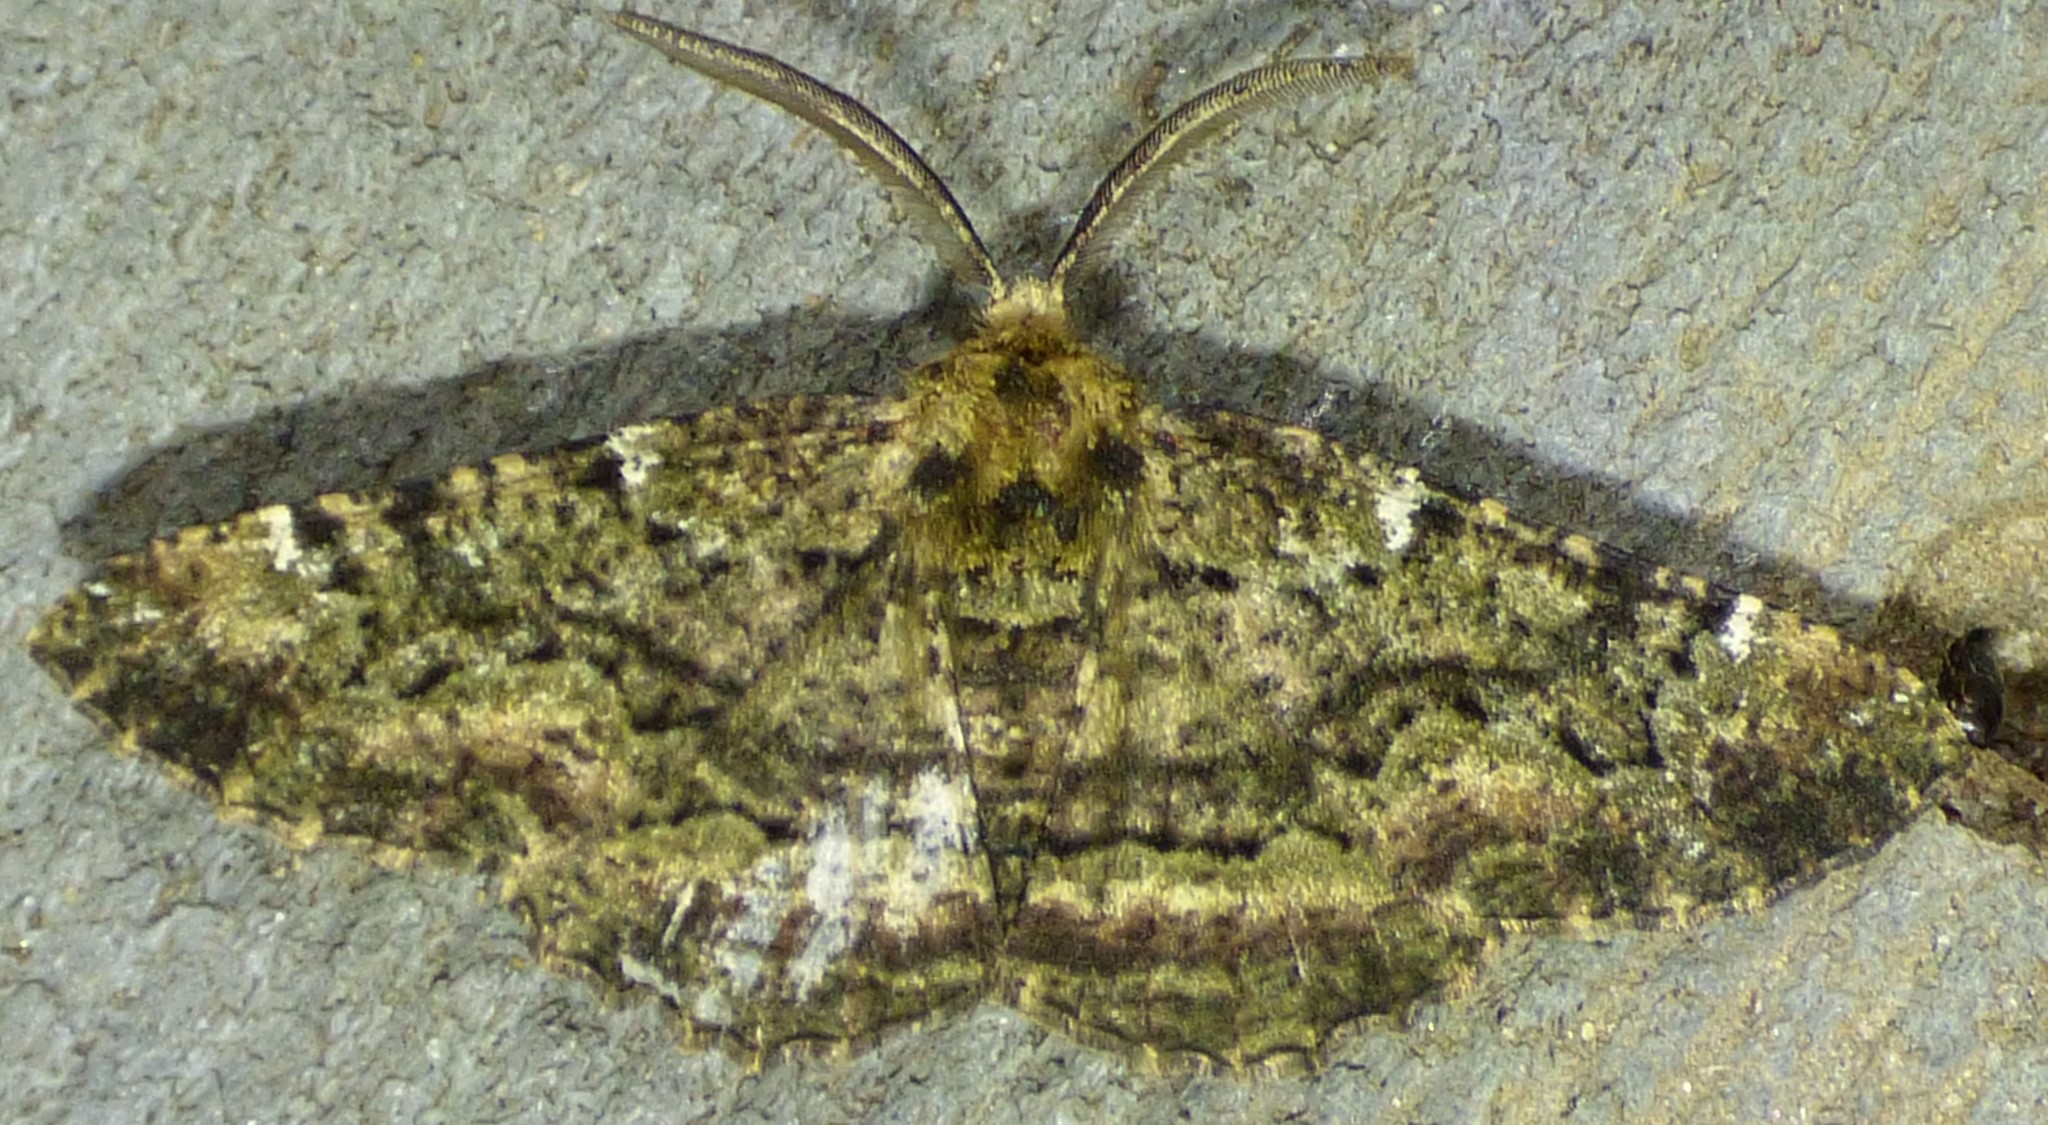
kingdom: Animalia
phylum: Arthropoda
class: Insecta
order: Lepidoptera
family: Geometridae
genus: Phaeoura
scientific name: Phaeoura quernaria
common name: Oak beauty
